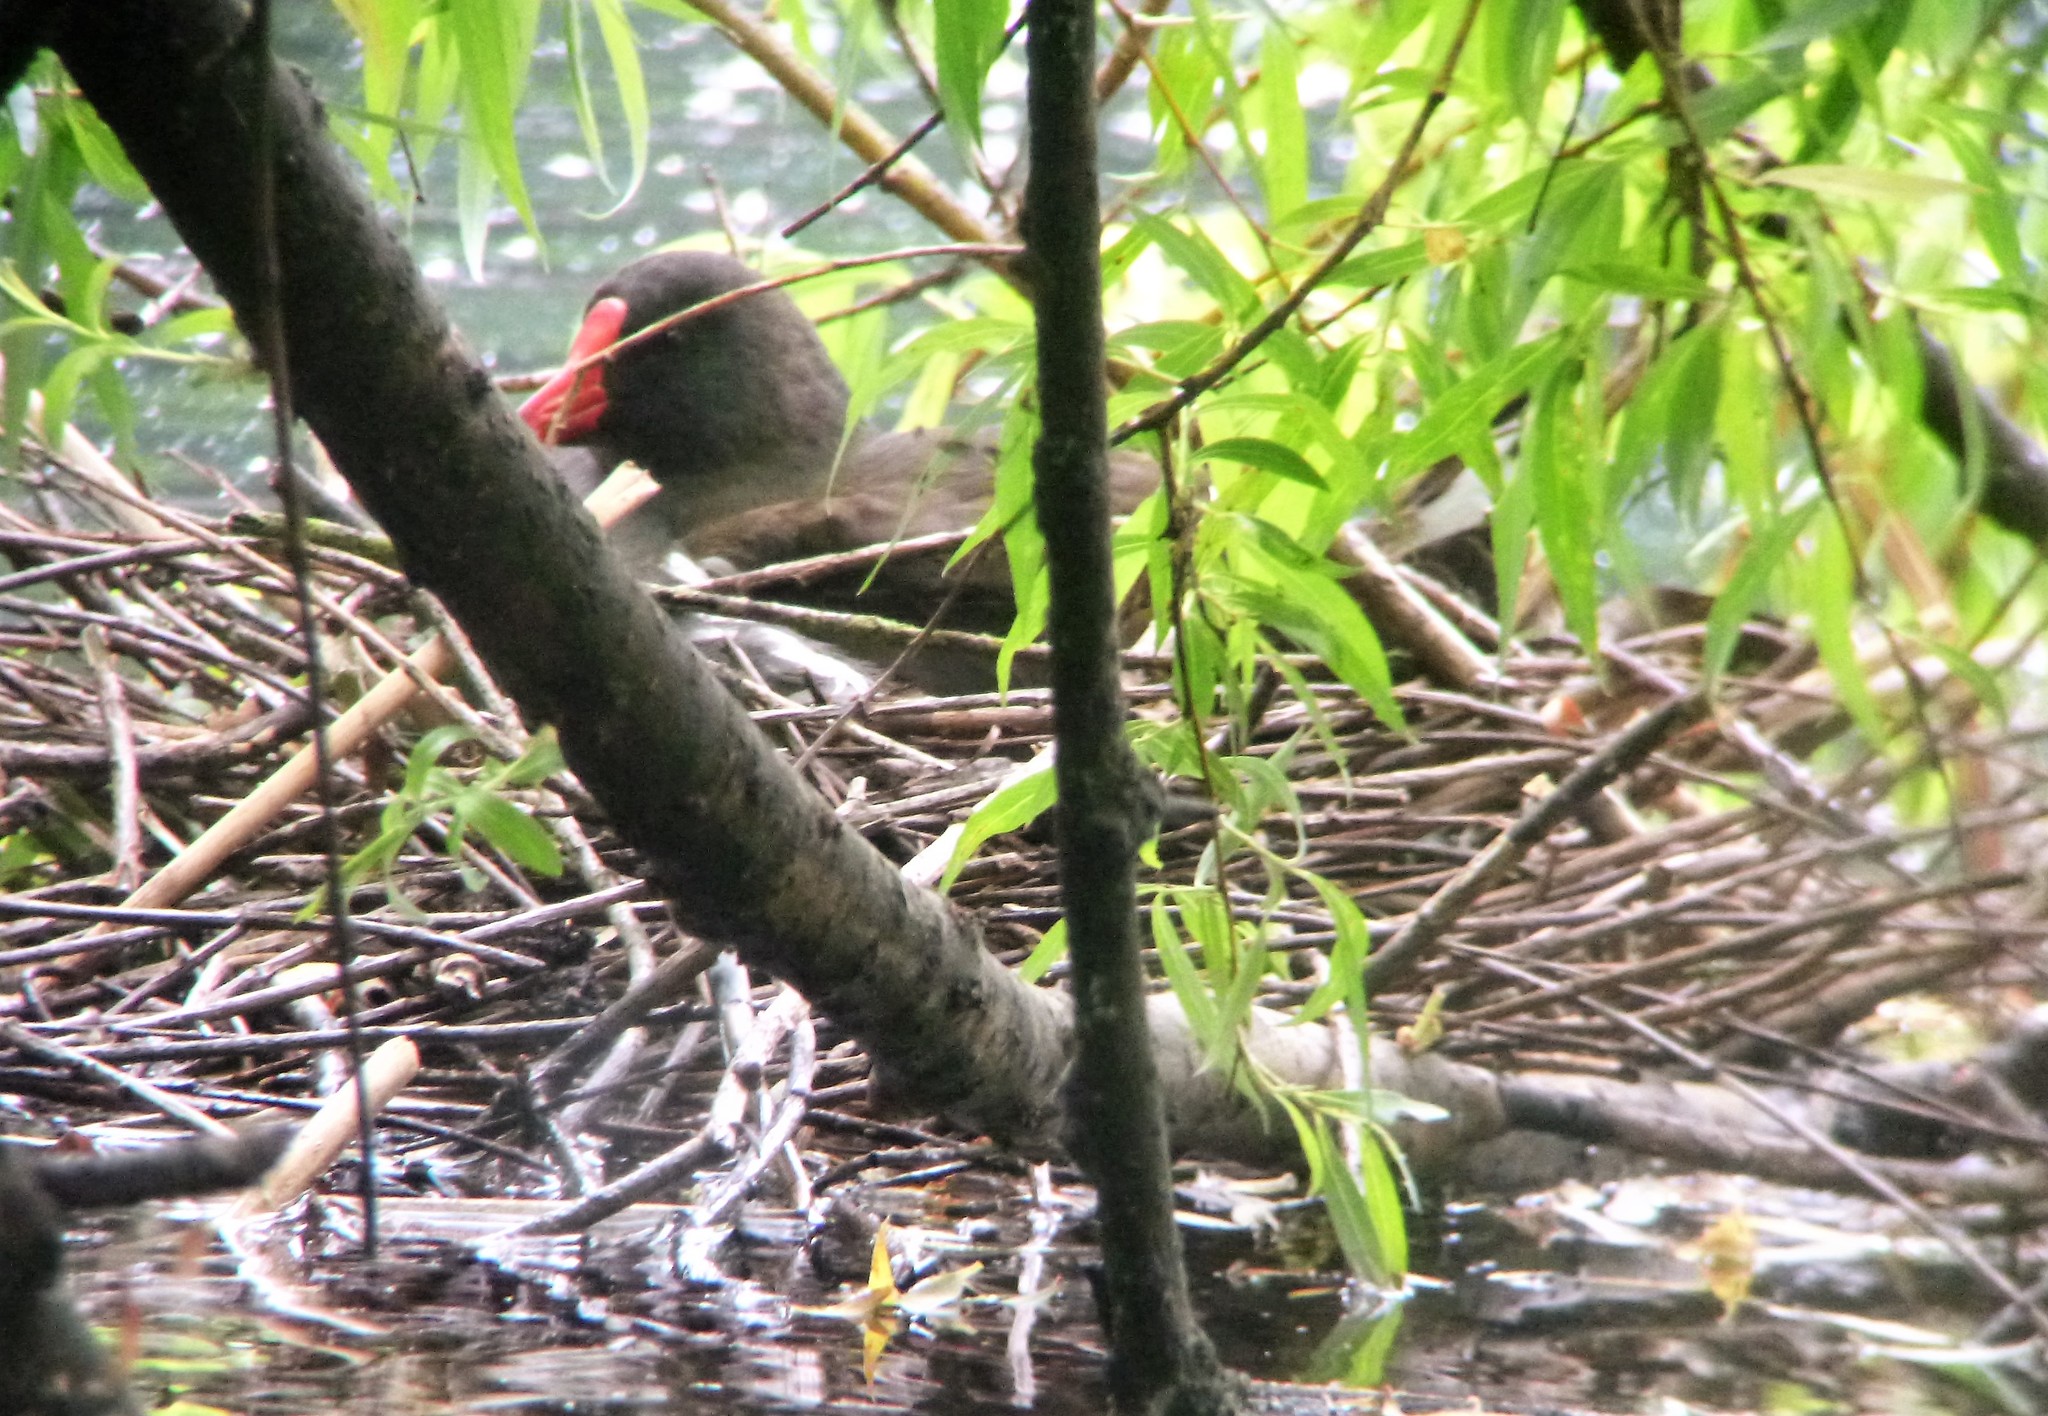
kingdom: Animalia
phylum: Chordata
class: Aves
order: Gruiformes
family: Rallidae
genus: Gallinula
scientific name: Gallinula chloropus
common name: Common moorhen
